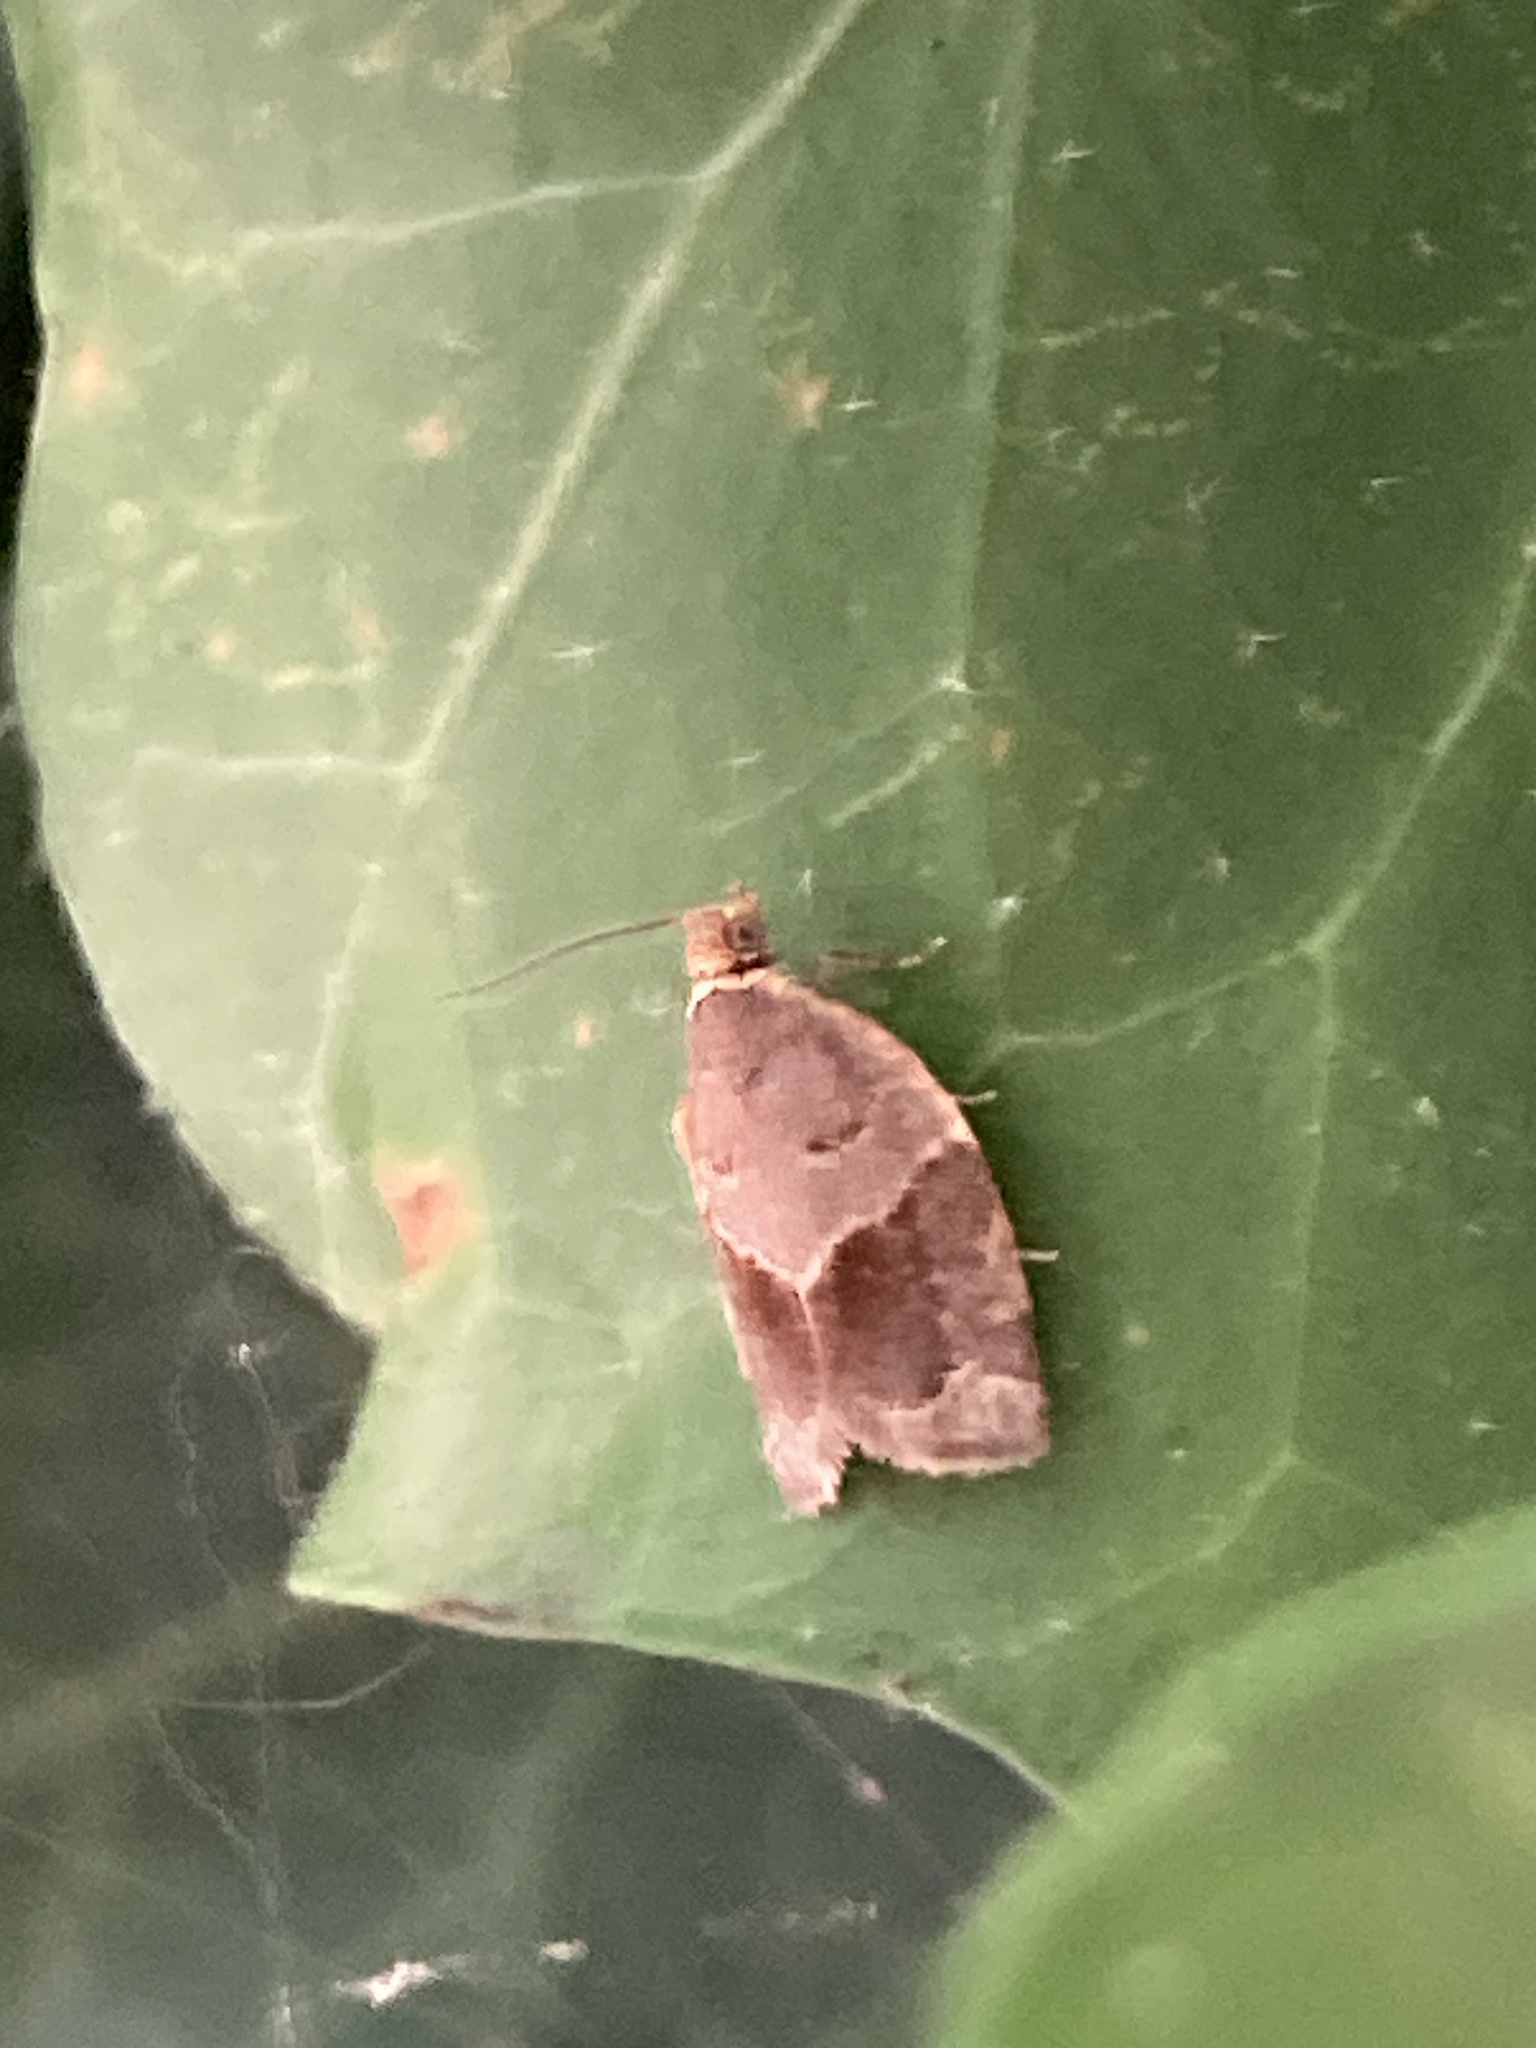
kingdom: Animalia
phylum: Arthropoda
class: Insecta
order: Lepidoptera
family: Tortricidae
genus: Clepsis
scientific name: Clepsis dumicolana
